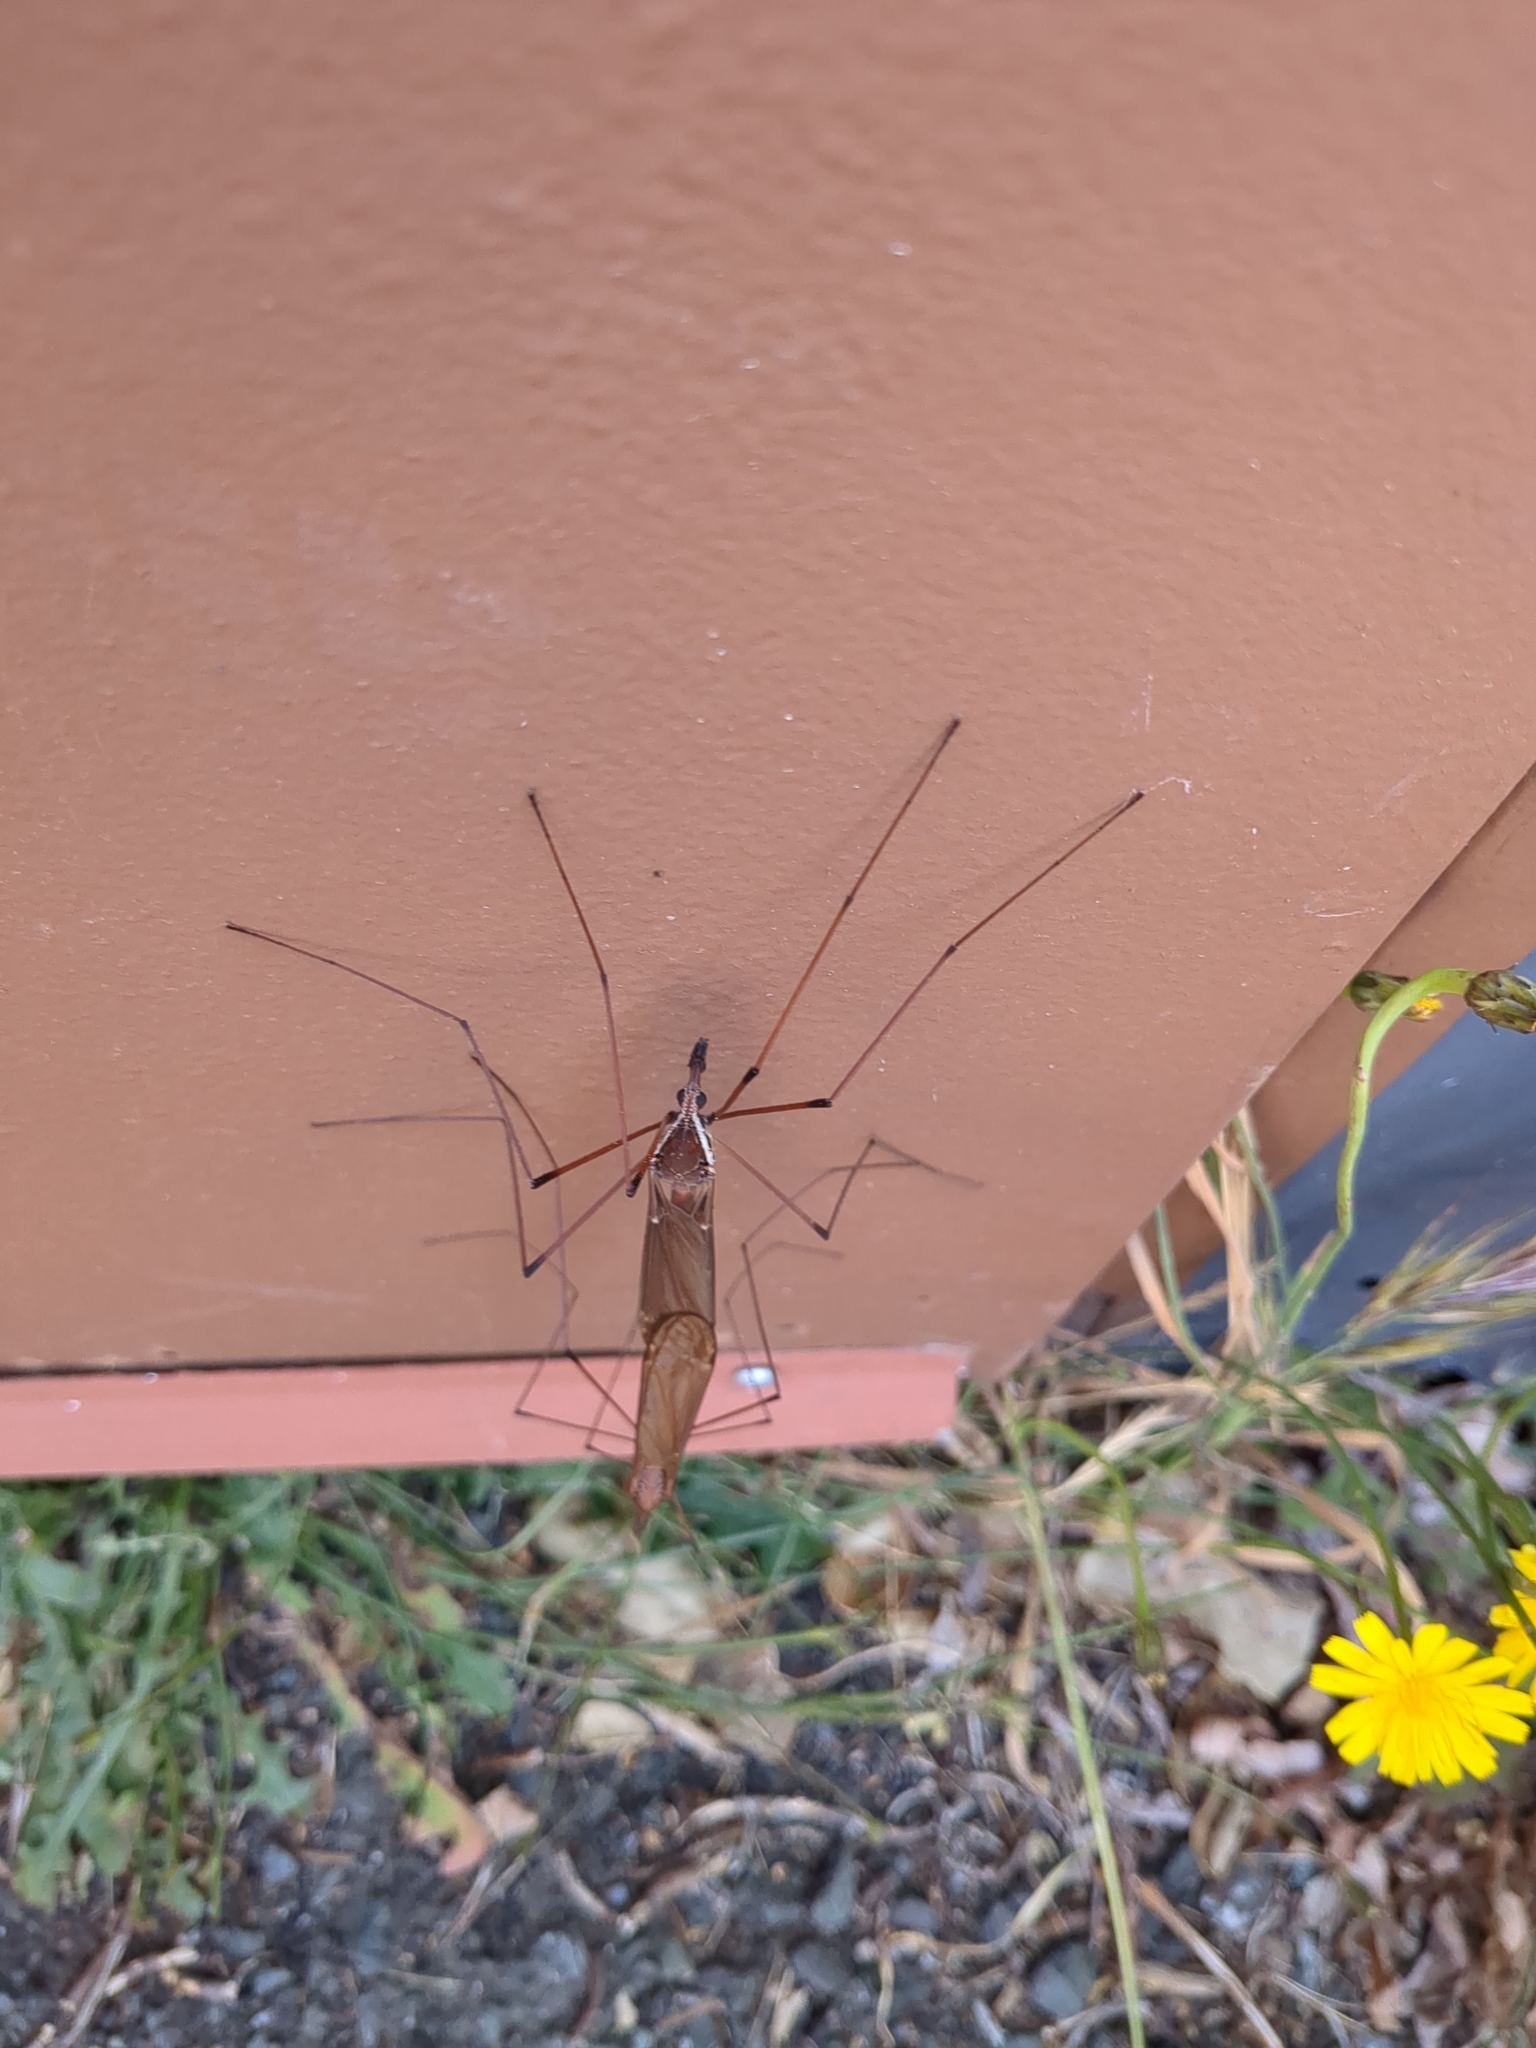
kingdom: Animalia
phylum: Arthropoda
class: Insecta
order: Diptera
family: Tipulidae
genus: Holorusia
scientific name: Holorusia hespera
